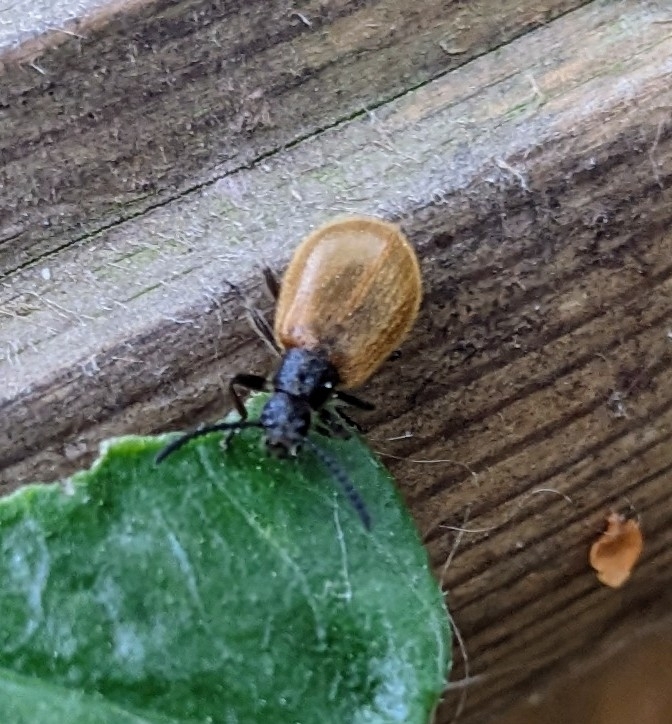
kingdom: Animalia
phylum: Arthropoda
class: Insecta
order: Coleoptera
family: Tenebrionidae
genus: Lagria
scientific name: Lagria hirta
